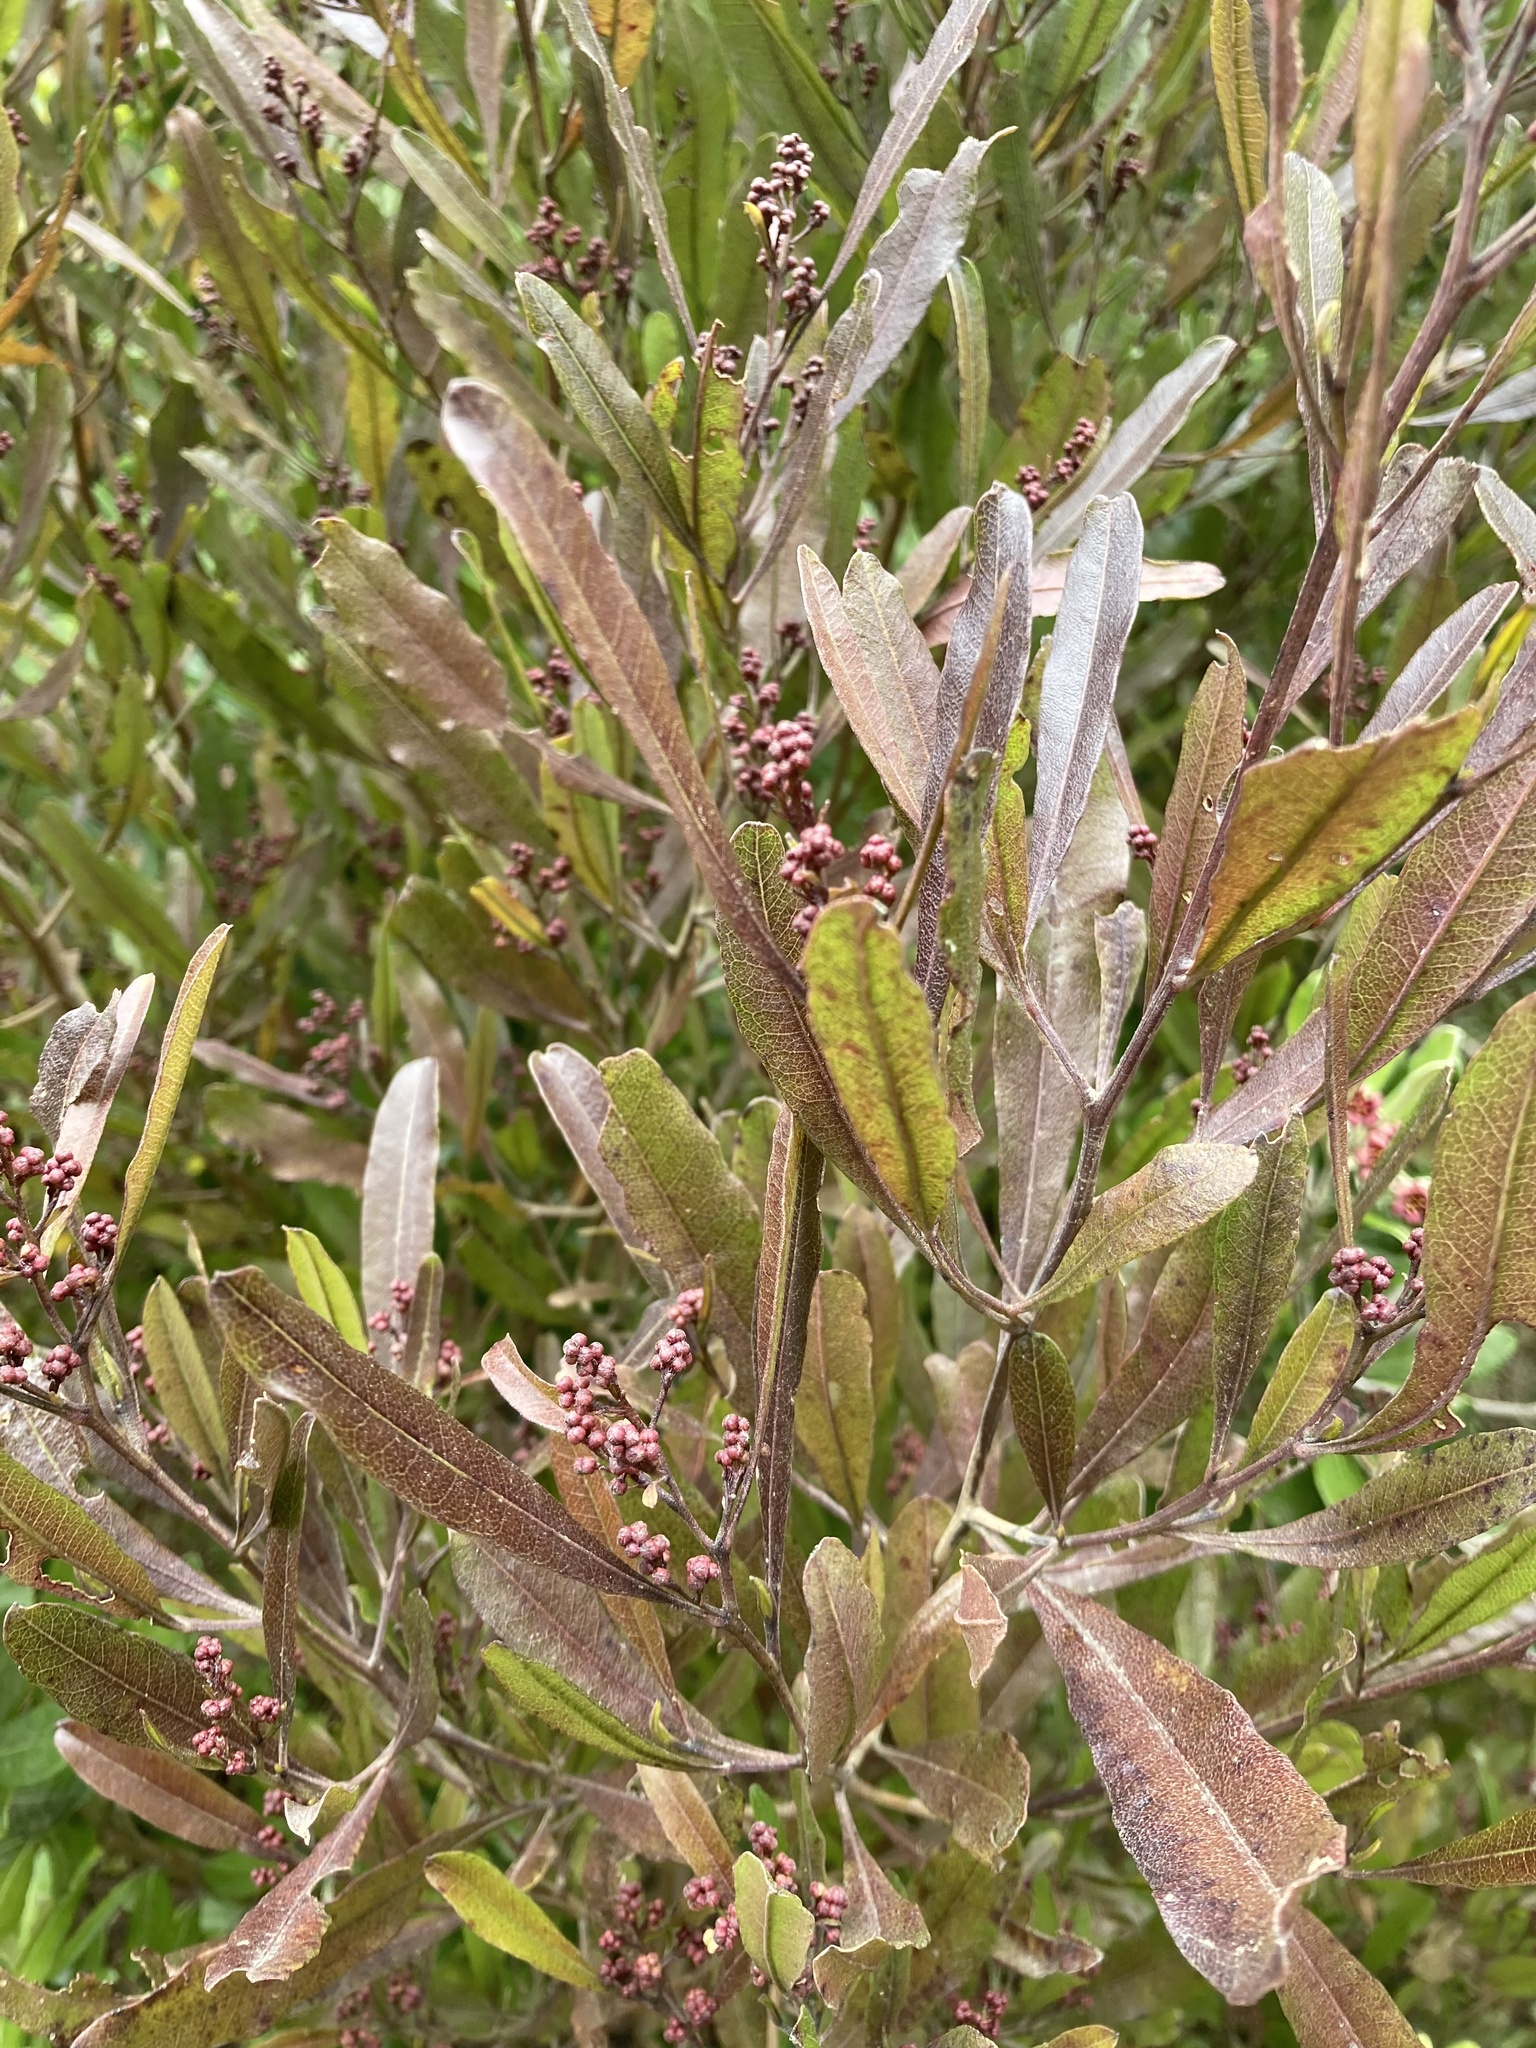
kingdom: Plantae
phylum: Tracheophyta
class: Magnoliopsida
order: Sapindales
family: Sapindaceae
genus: Dodonaea
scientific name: Dodonaea viscosa
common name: Hopbush
